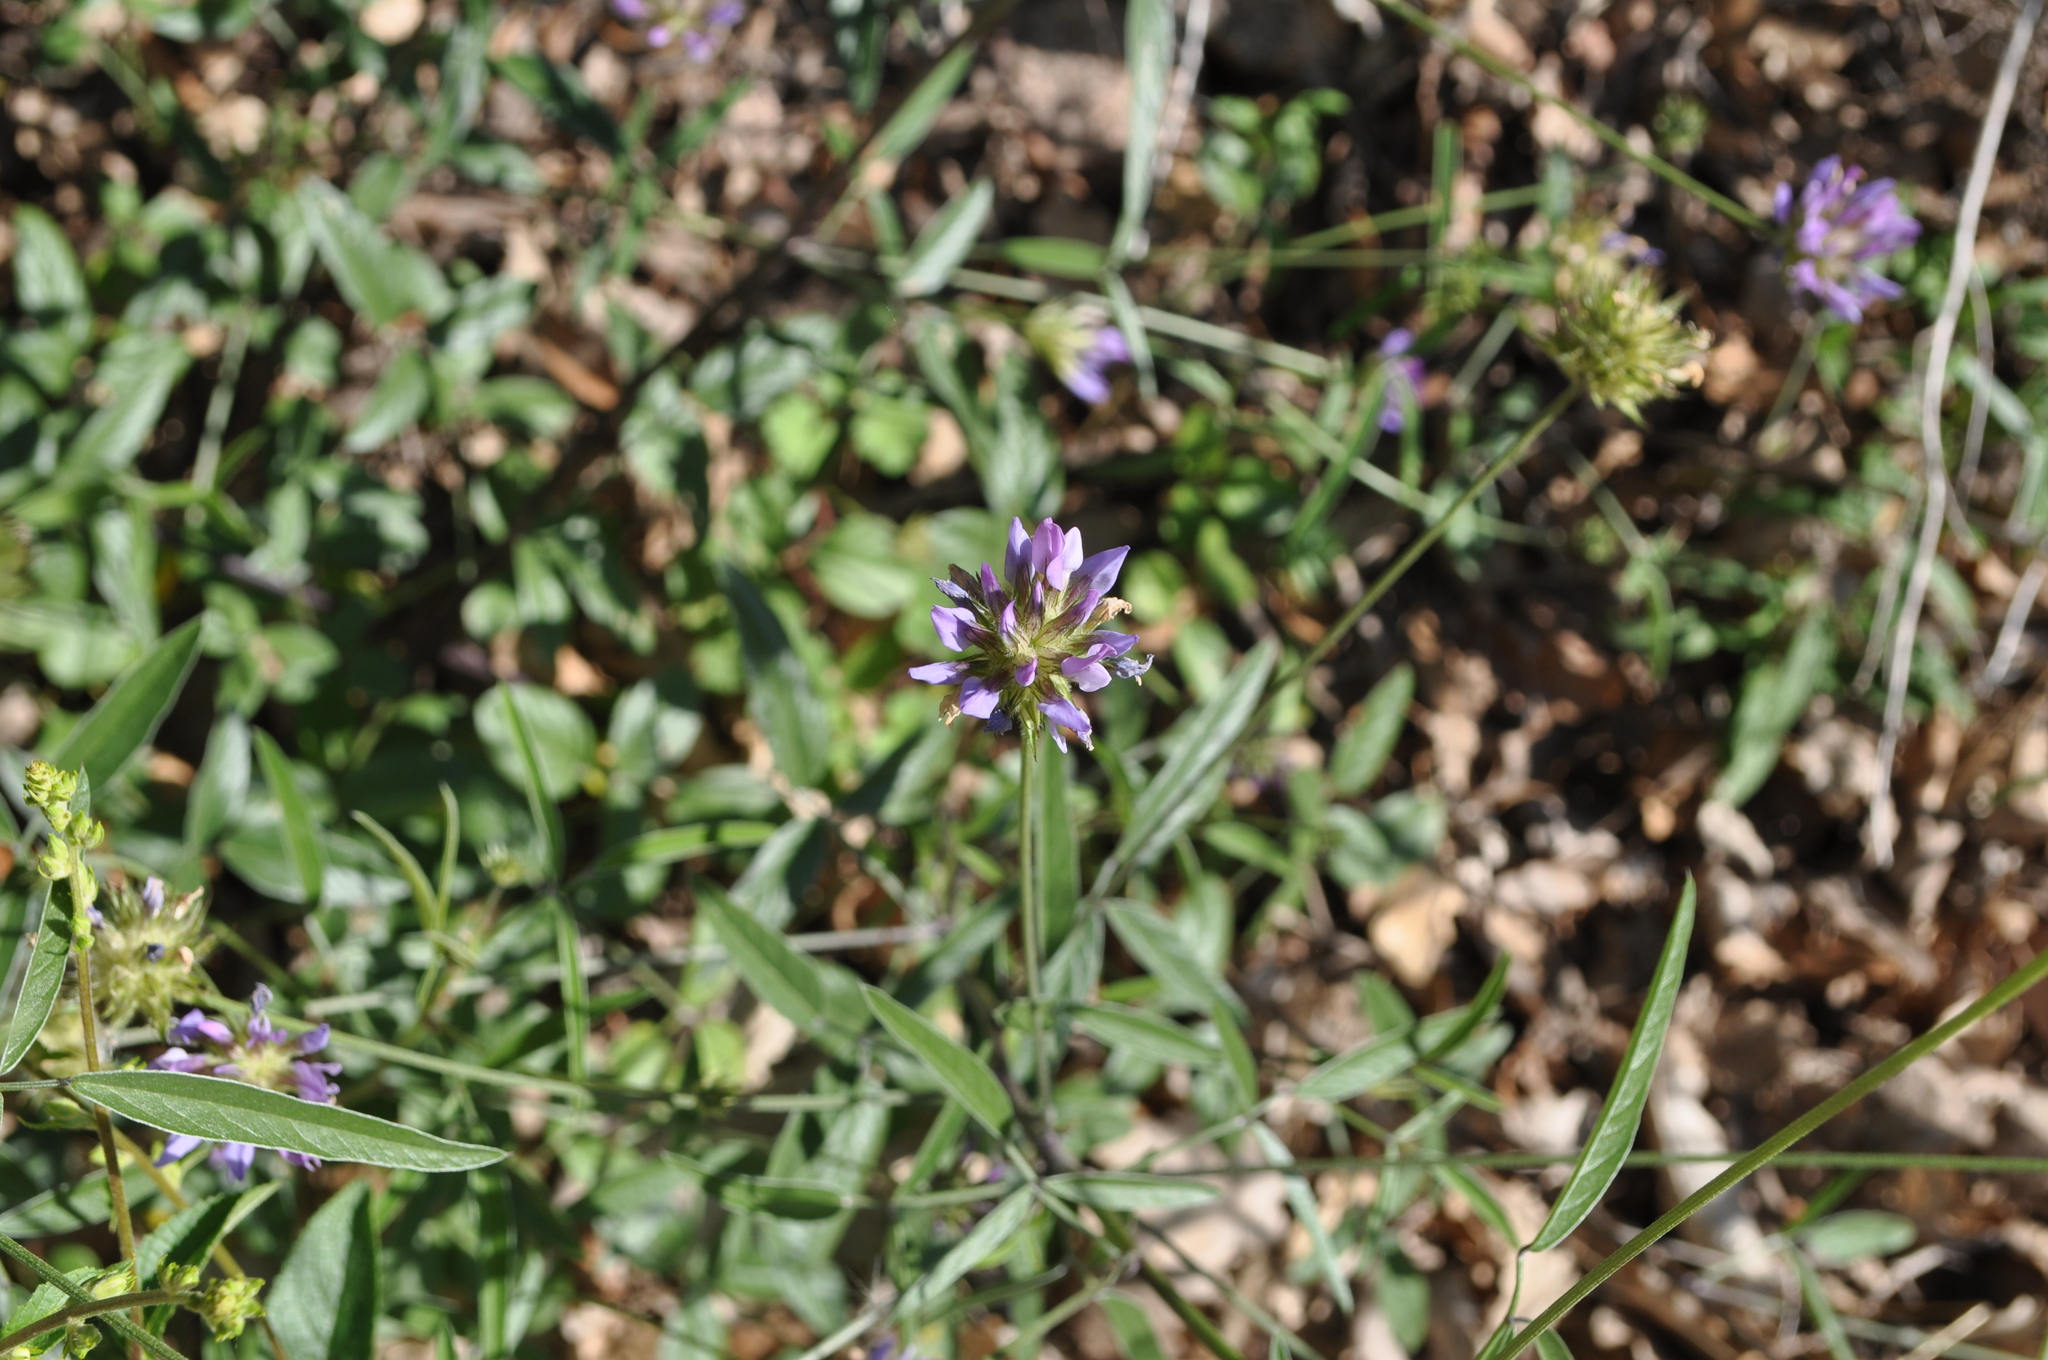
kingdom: Plantae
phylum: Tracheophyta
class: Magnoliopsida
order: Fabales
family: Fabaceae
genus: Bituminaria
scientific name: Bituminaria bituminosa
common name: Arabian pea
